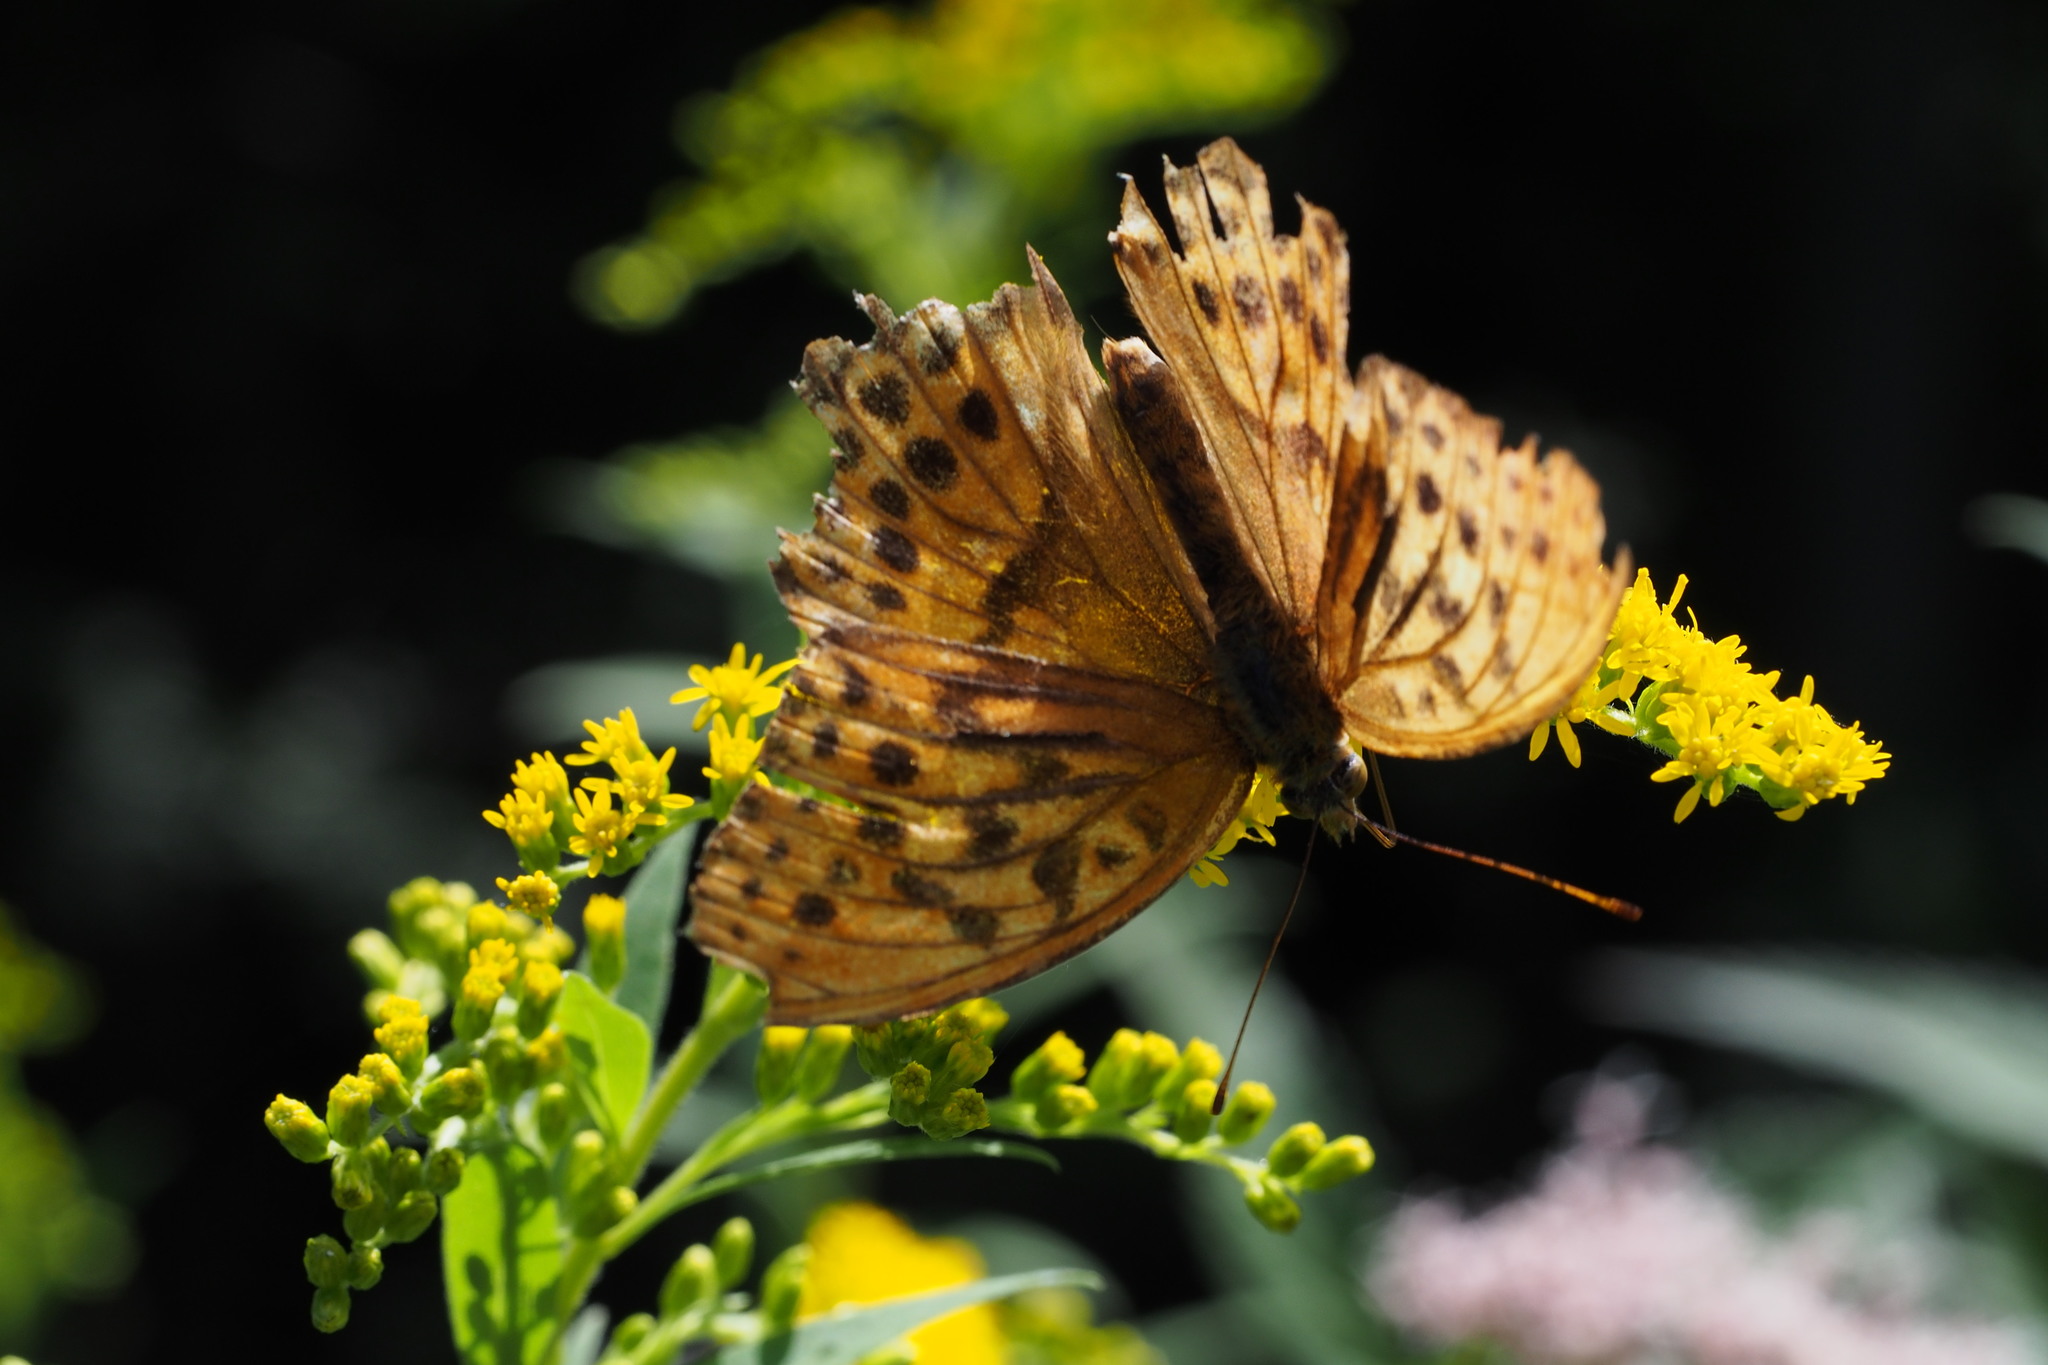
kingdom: Animalia
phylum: Arthropoda
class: Insecta
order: Lepidoptera
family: Nymphalidae
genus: Damora
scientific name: Damora sagana
